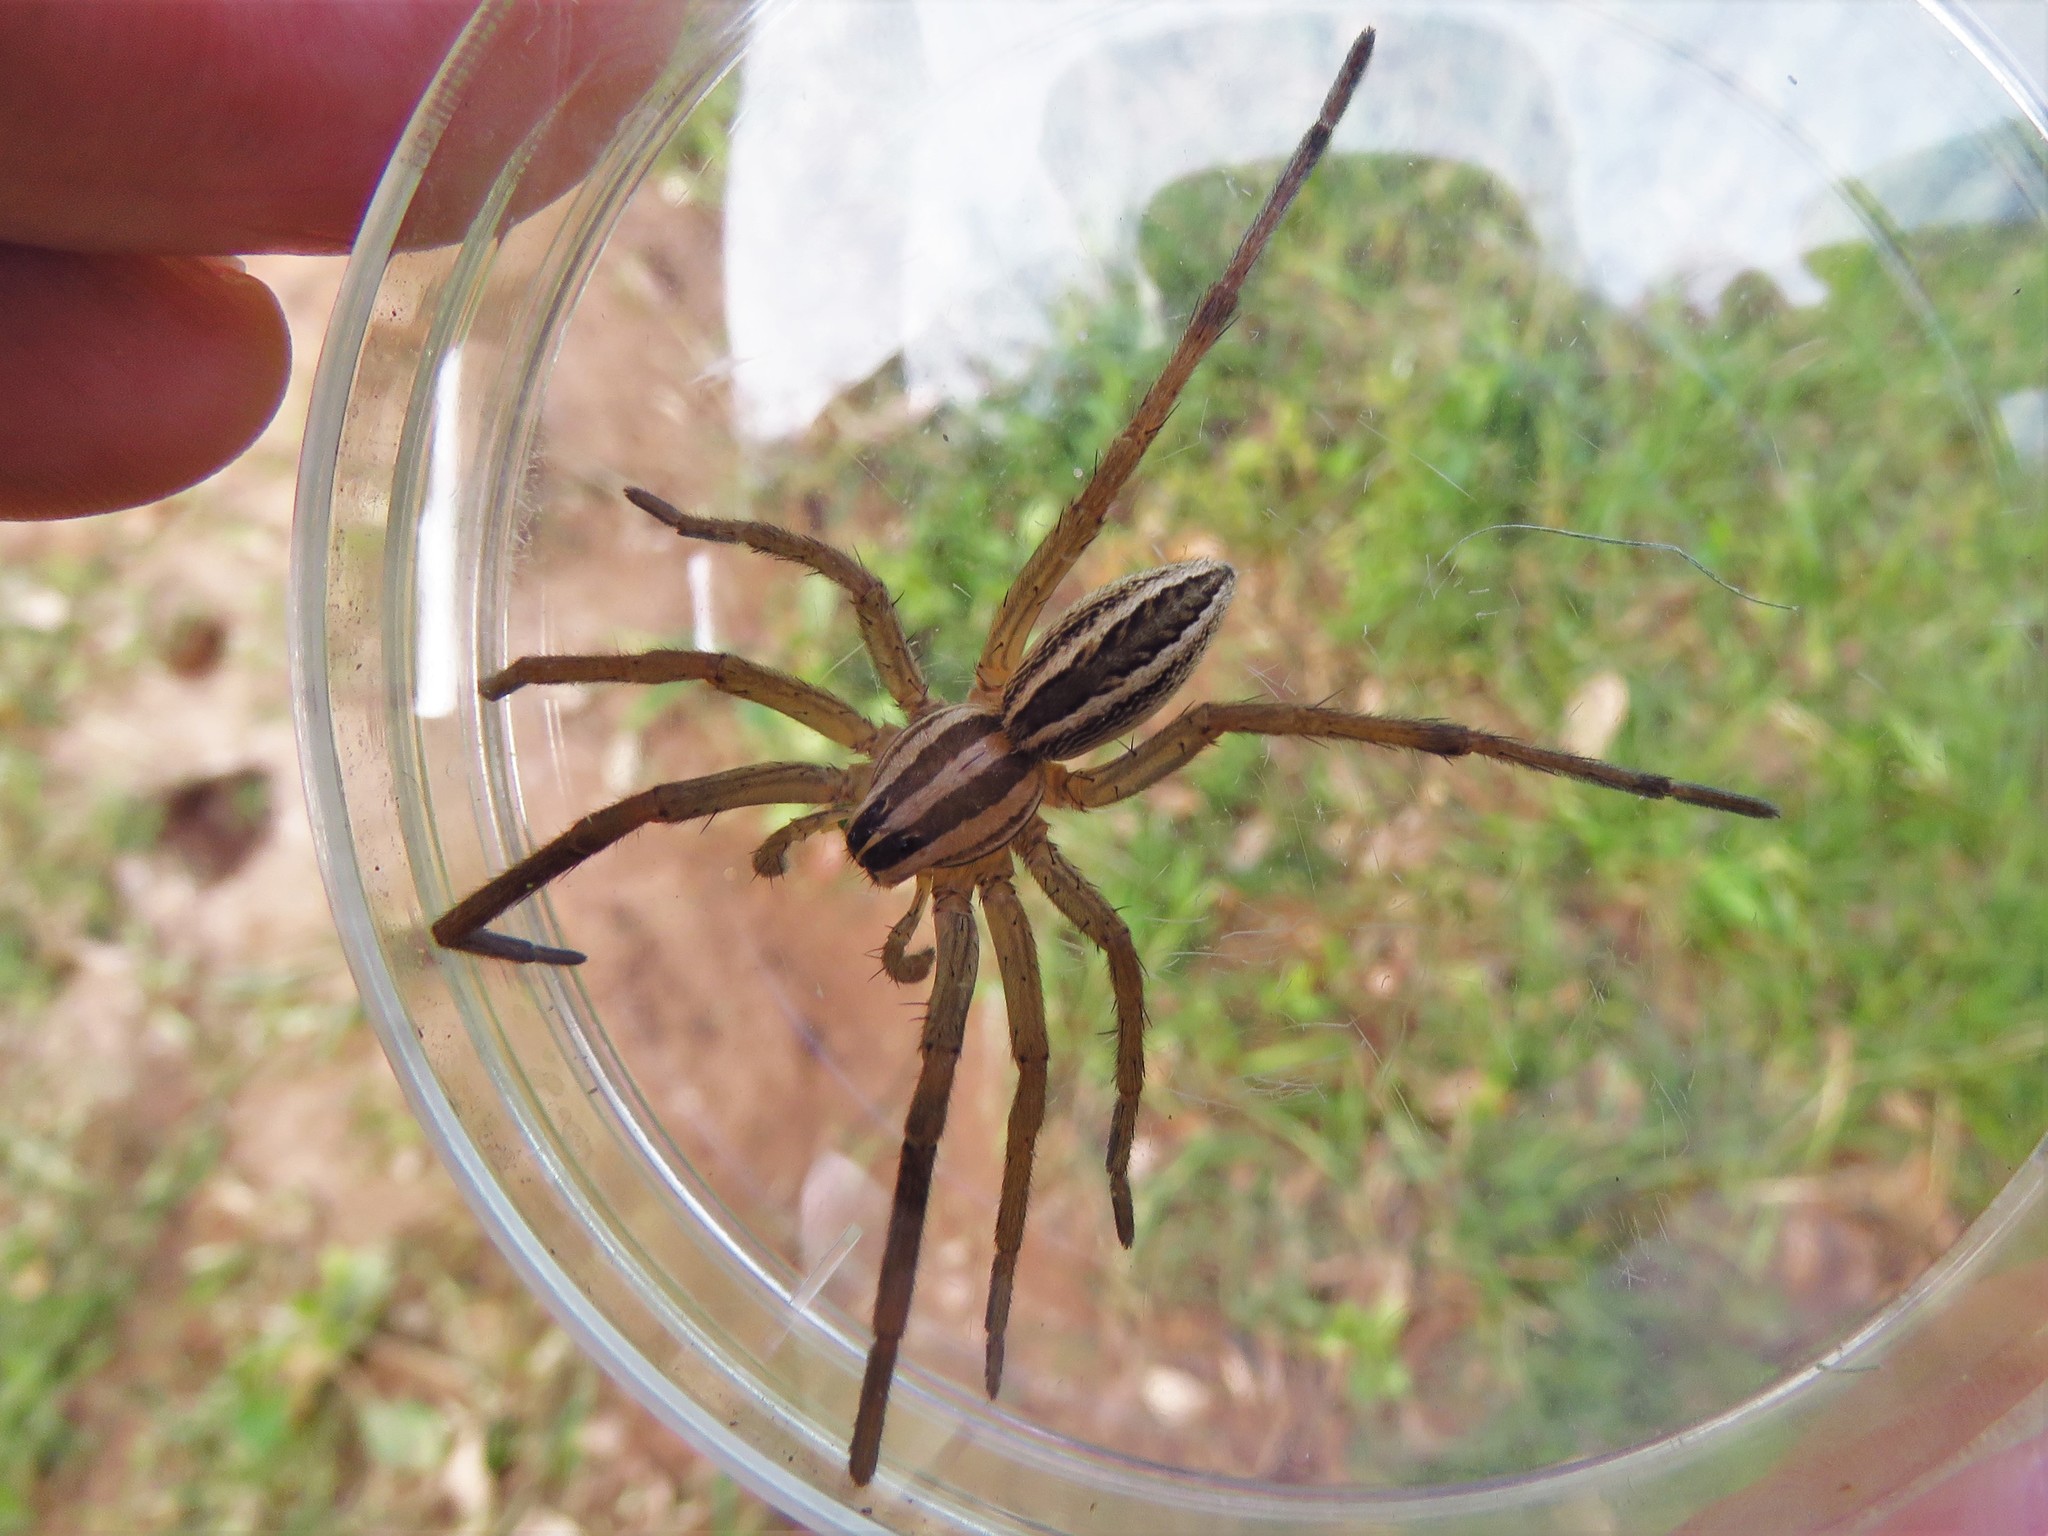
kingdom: Animalia
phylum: Arthropoda
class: Arachnida
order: Araneae
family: Lycosidae
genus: Rabidosa
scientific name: Rabidosa rabida
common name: Rabid wolf spider
